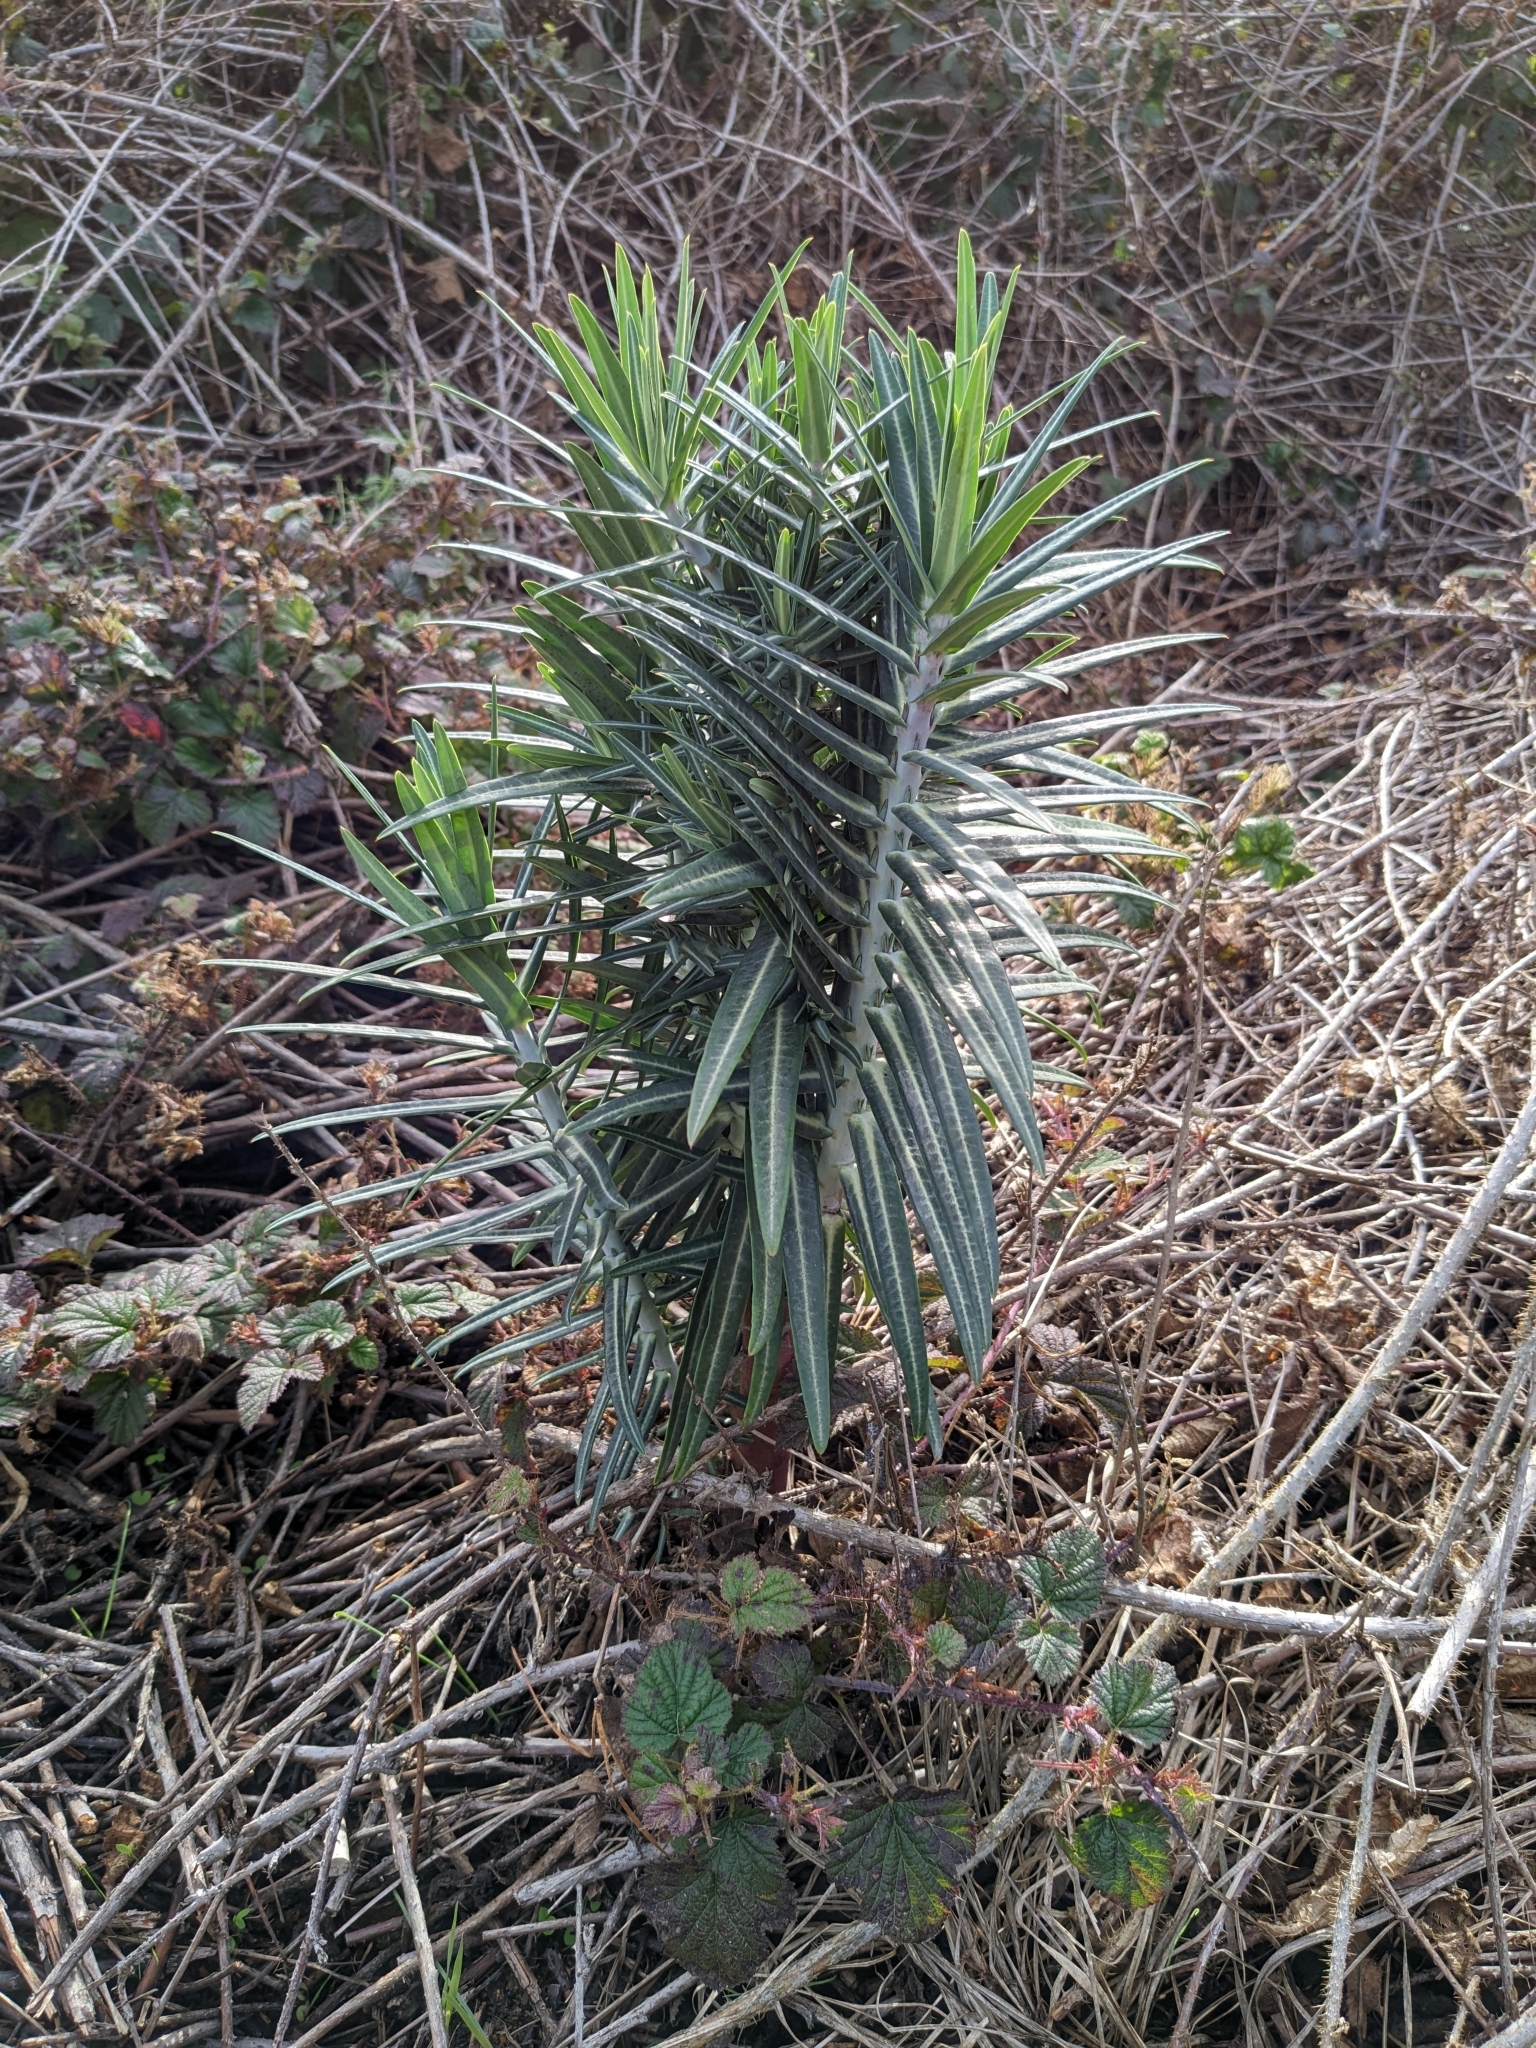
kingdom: Plantae
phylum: Tracheophyta
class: Magnoliopsida
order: Malpighiales
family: Euphorbiaceae
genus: Euphorbia
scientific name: Euphorbia lathyris
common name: Caper spurge
